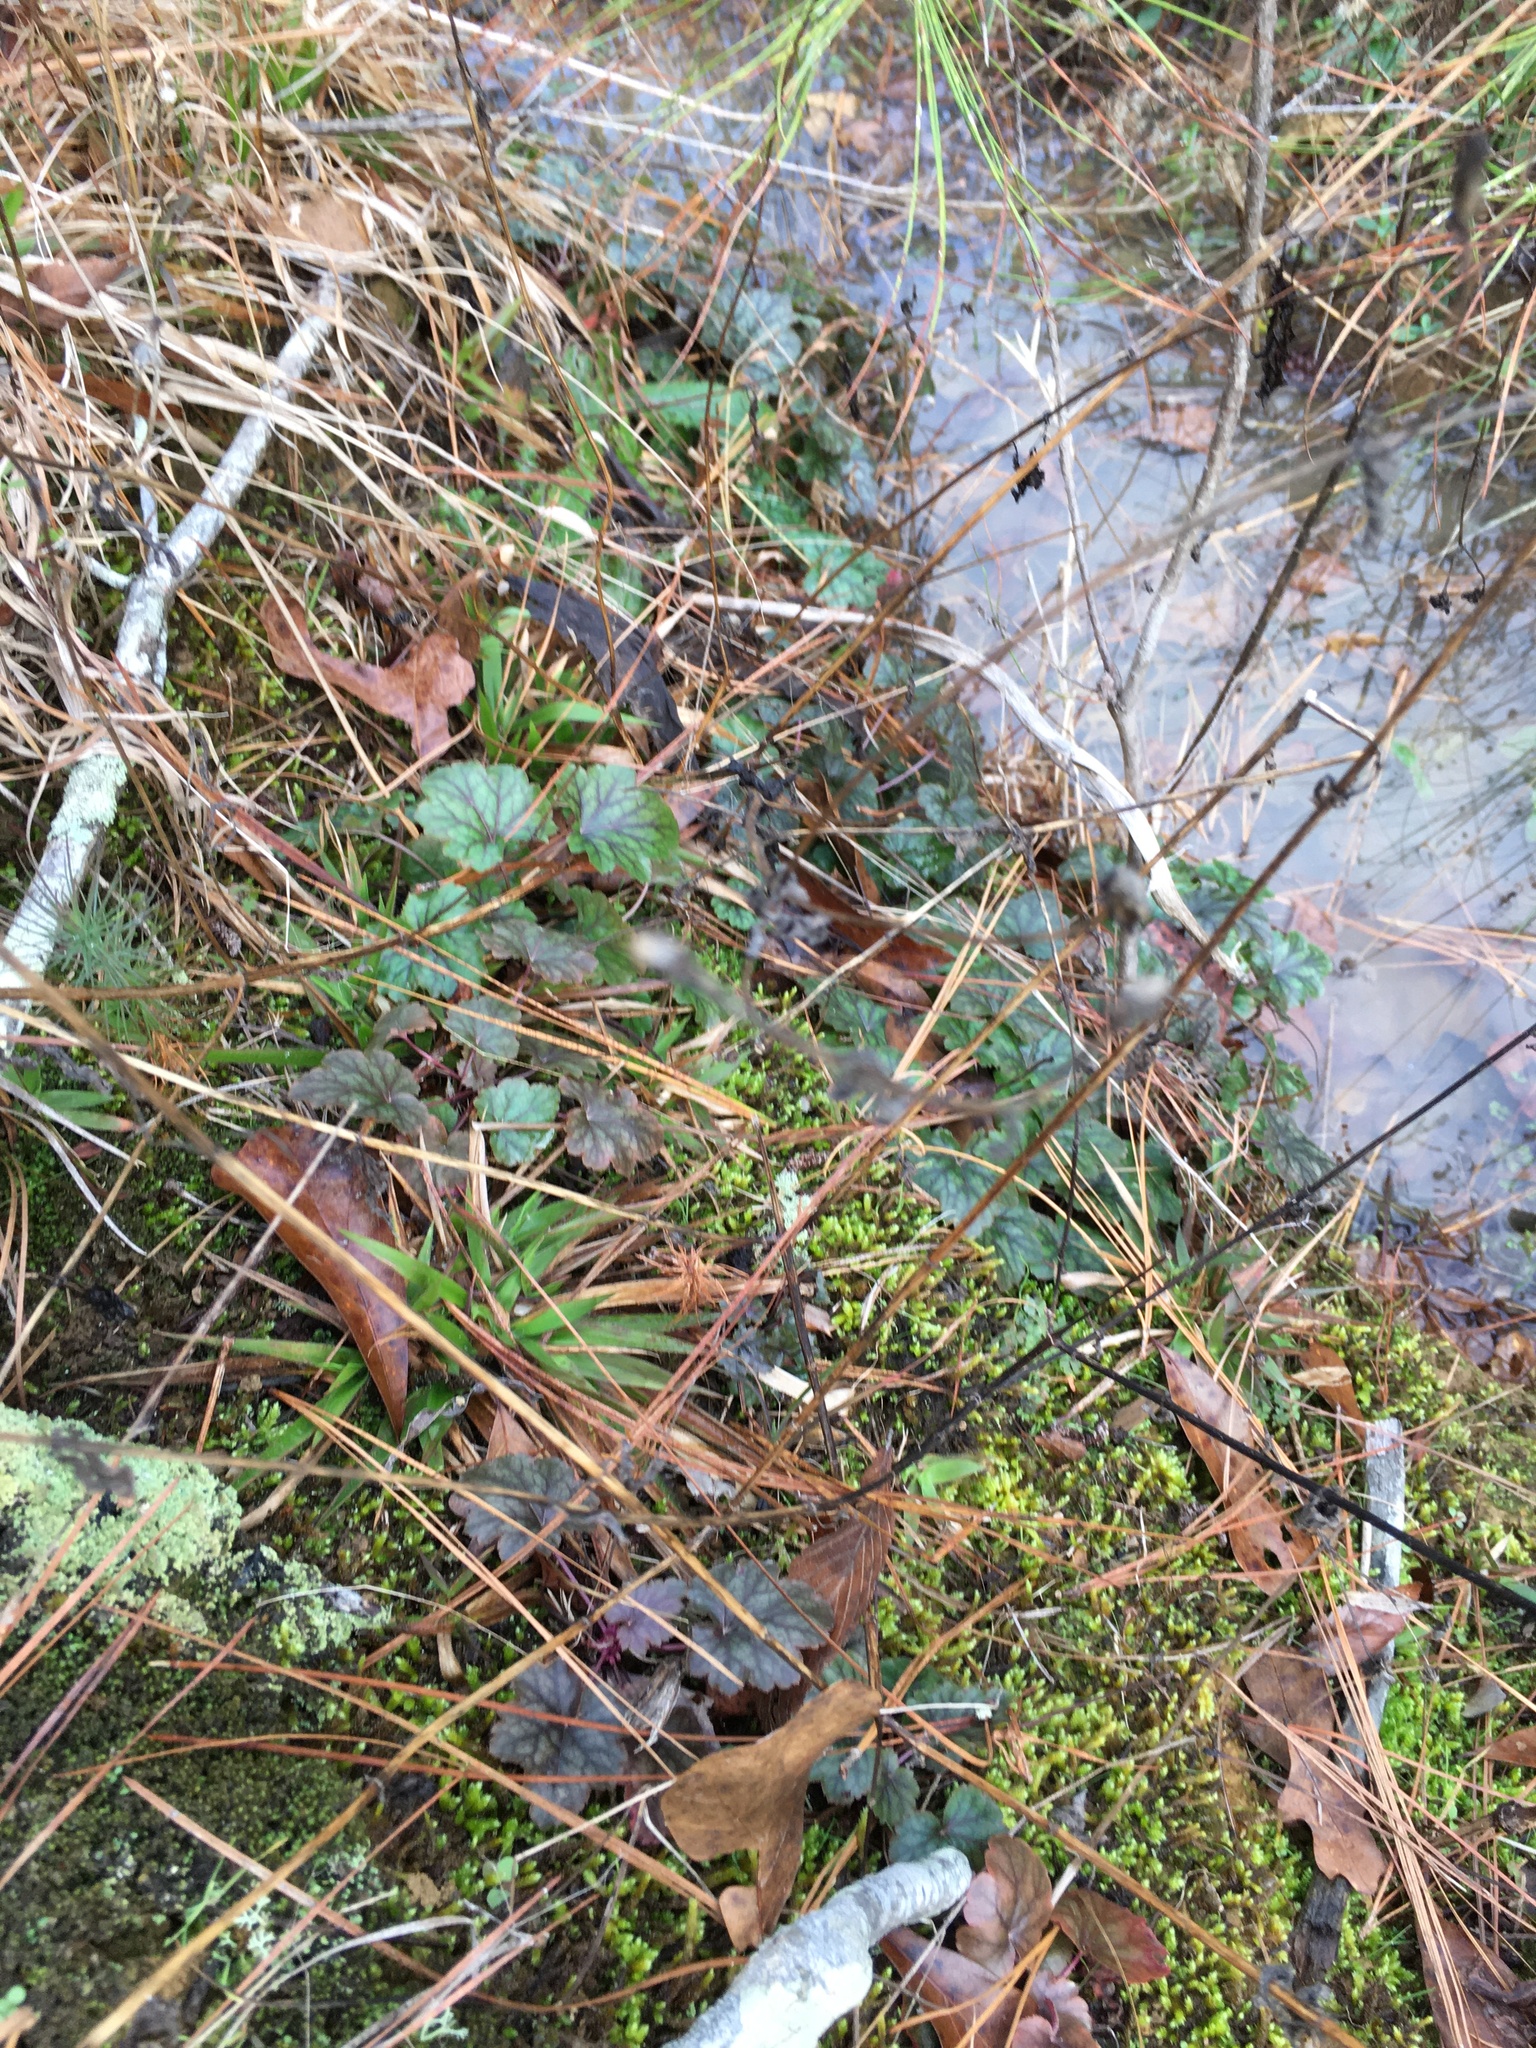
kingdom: Plantae
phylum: Tracheophyta
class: Magnoliopsida
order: Saxifragales
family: Saxifragaceae
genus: Heuchera
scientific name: Heuchera caroliniana
